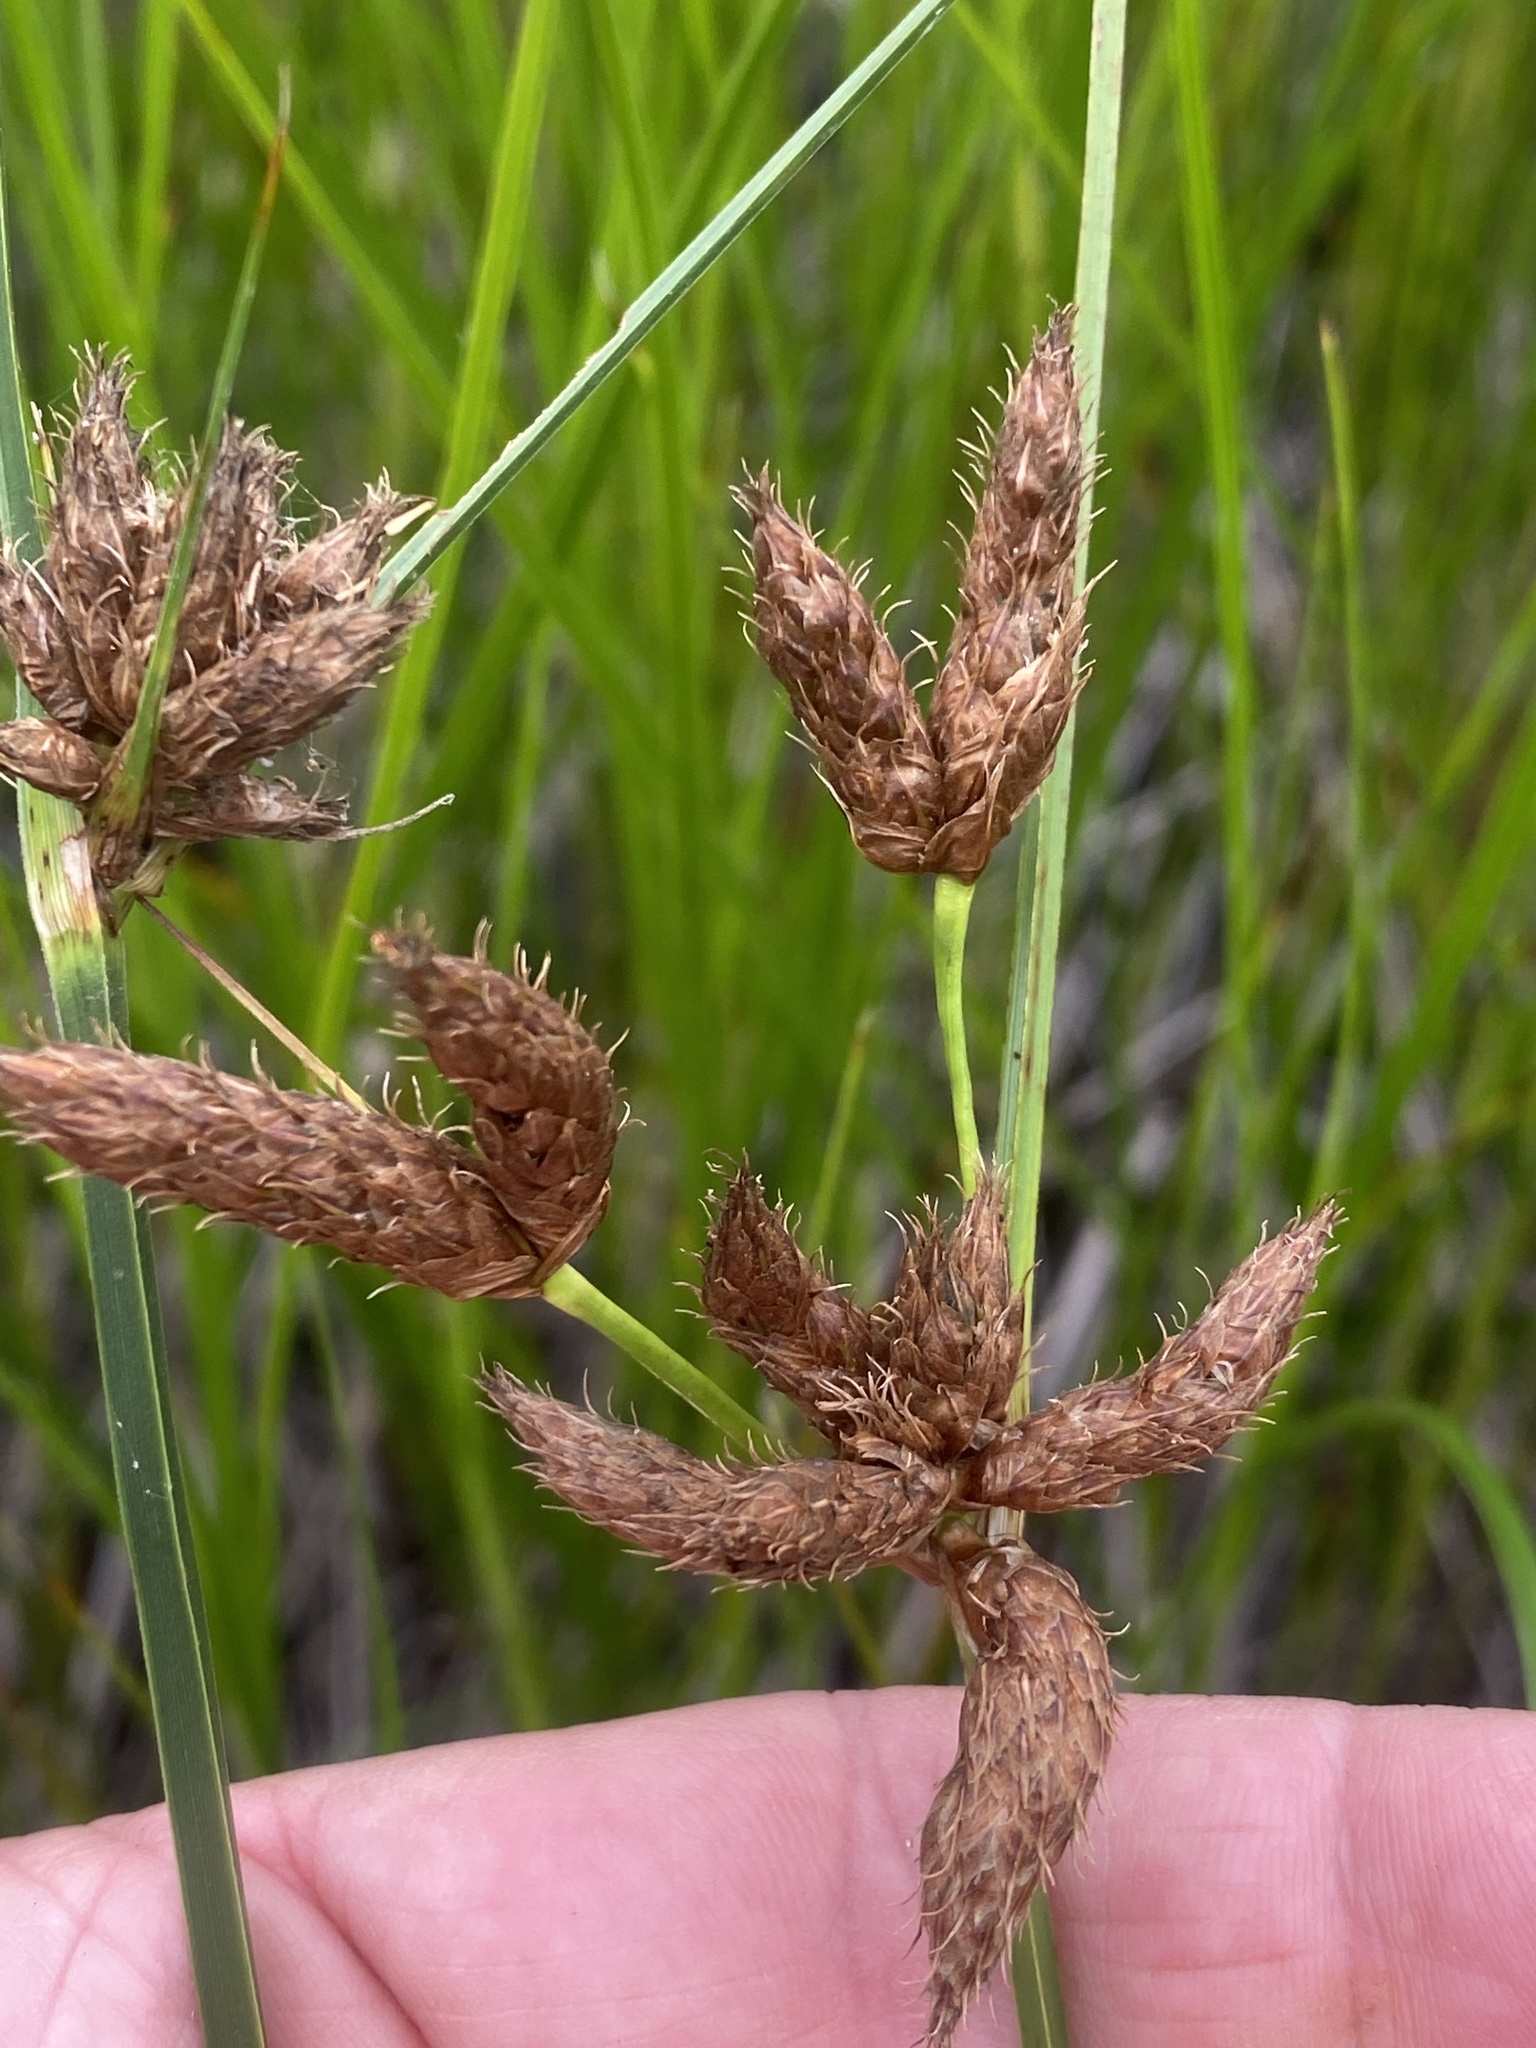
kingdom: Plantae
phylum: Tracheophyta
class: Liliopsida
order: Poales
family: Cyperaceae
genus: Bolboschoenus
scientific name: Bolboschoenus maritimus
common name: Sea club-rush
